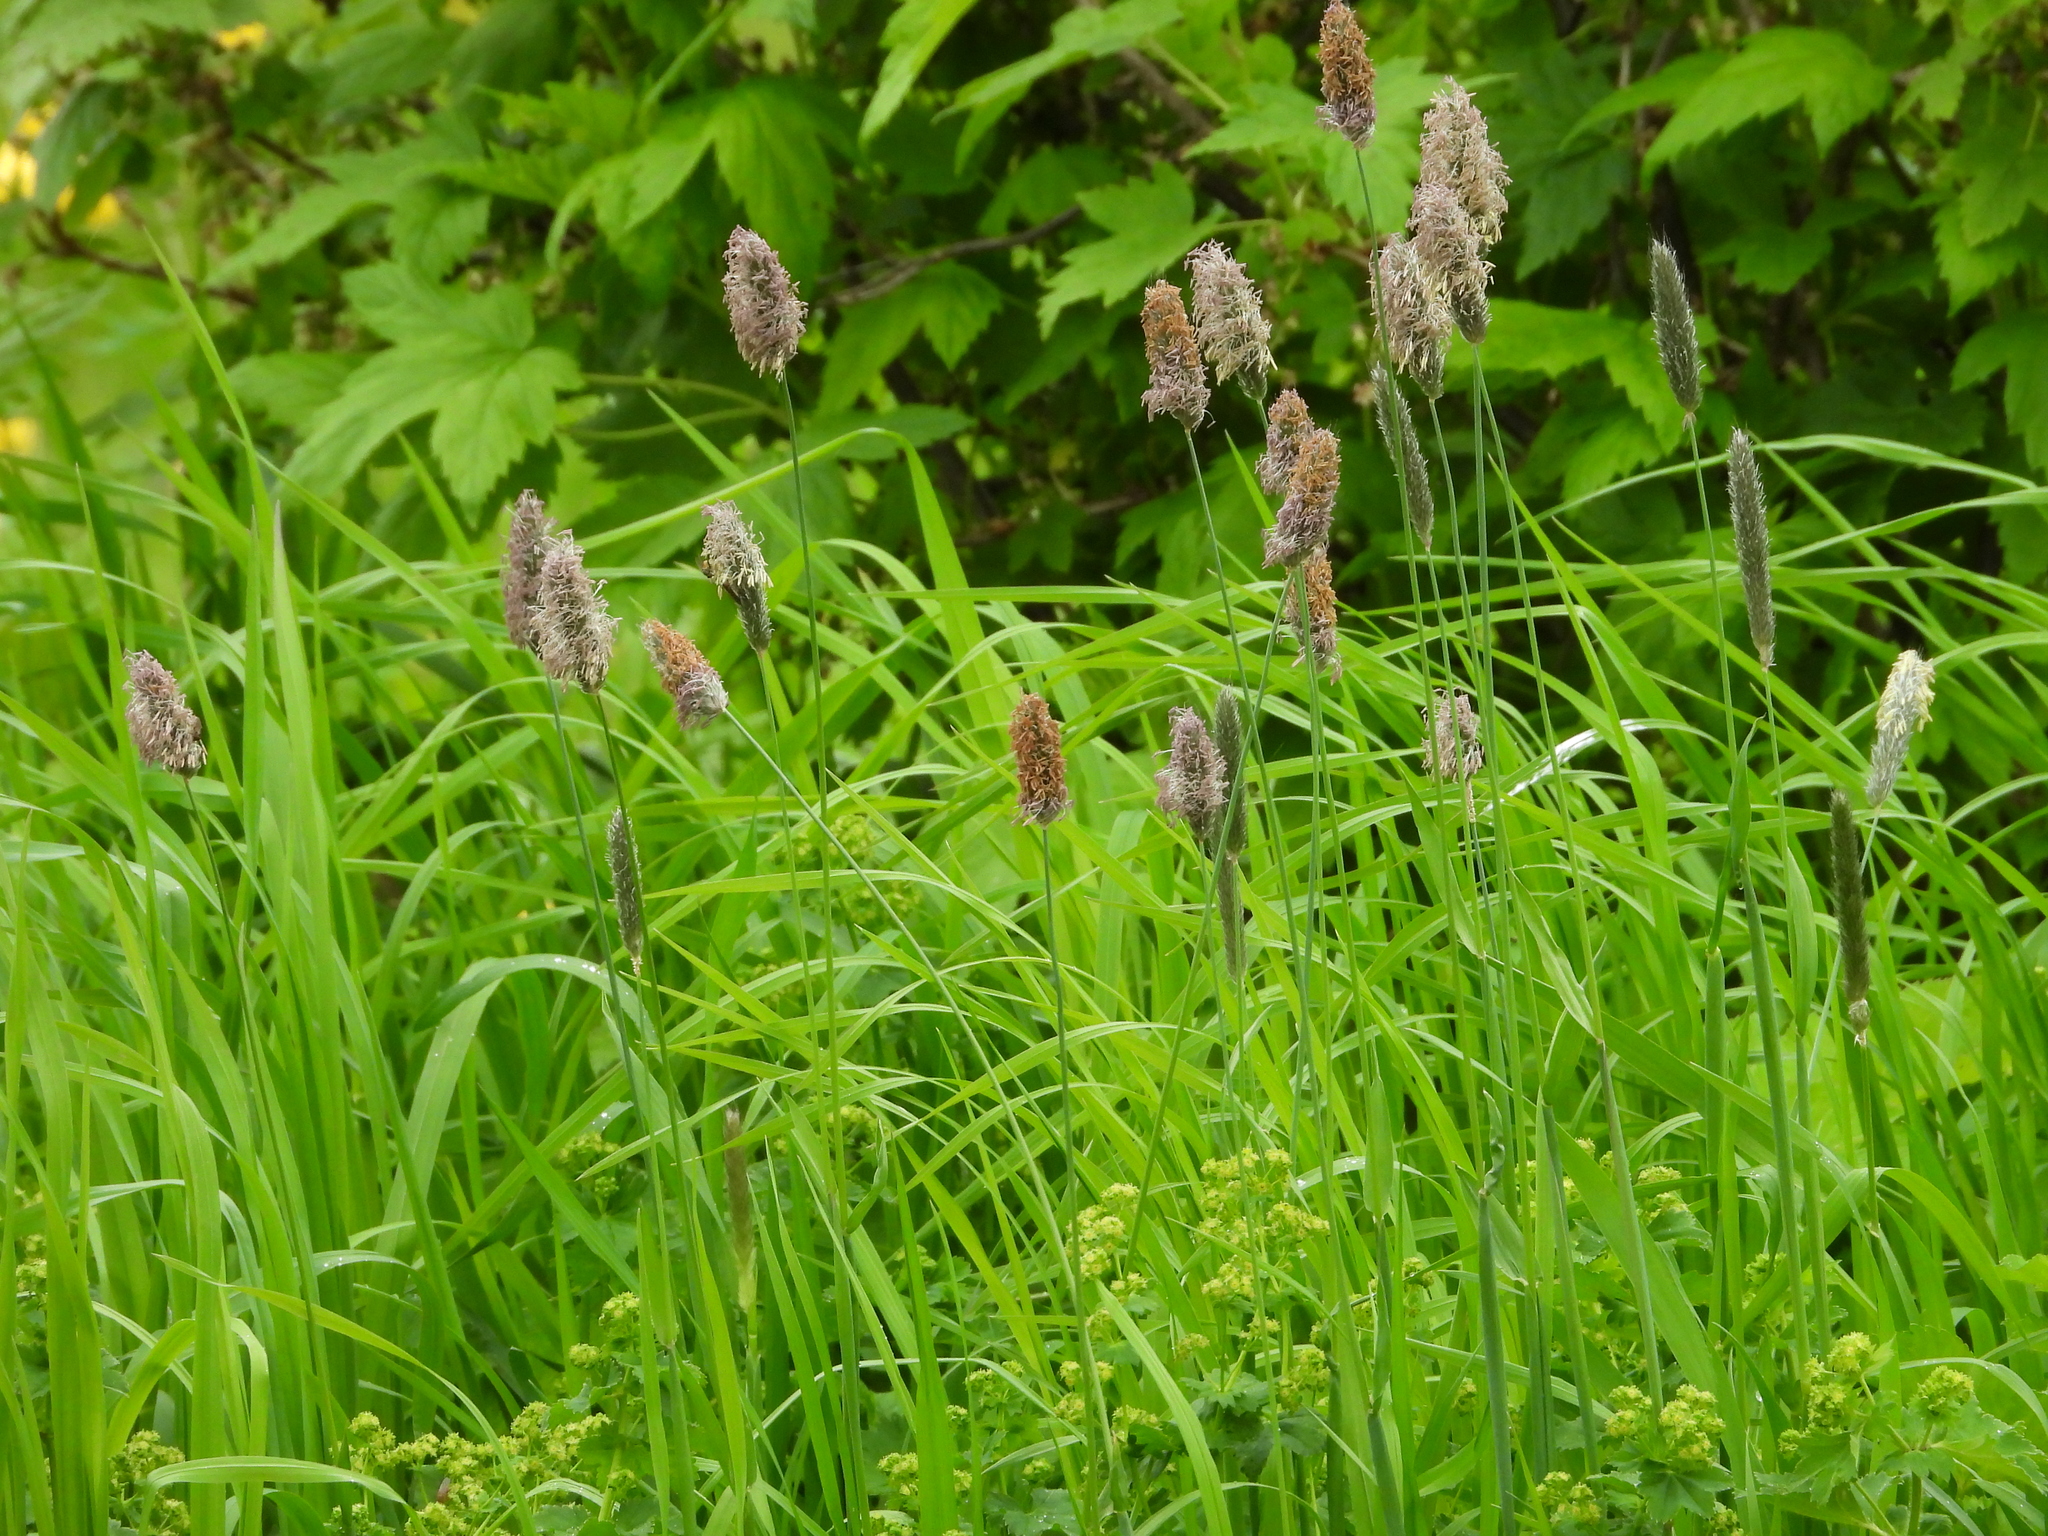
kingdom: Plantae
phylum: Tracheophyta
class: Liliopsida
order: Poales
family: Poaceae
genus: Alopecurus
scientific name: Alopecurus pratensis
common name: Meadow foxtail
